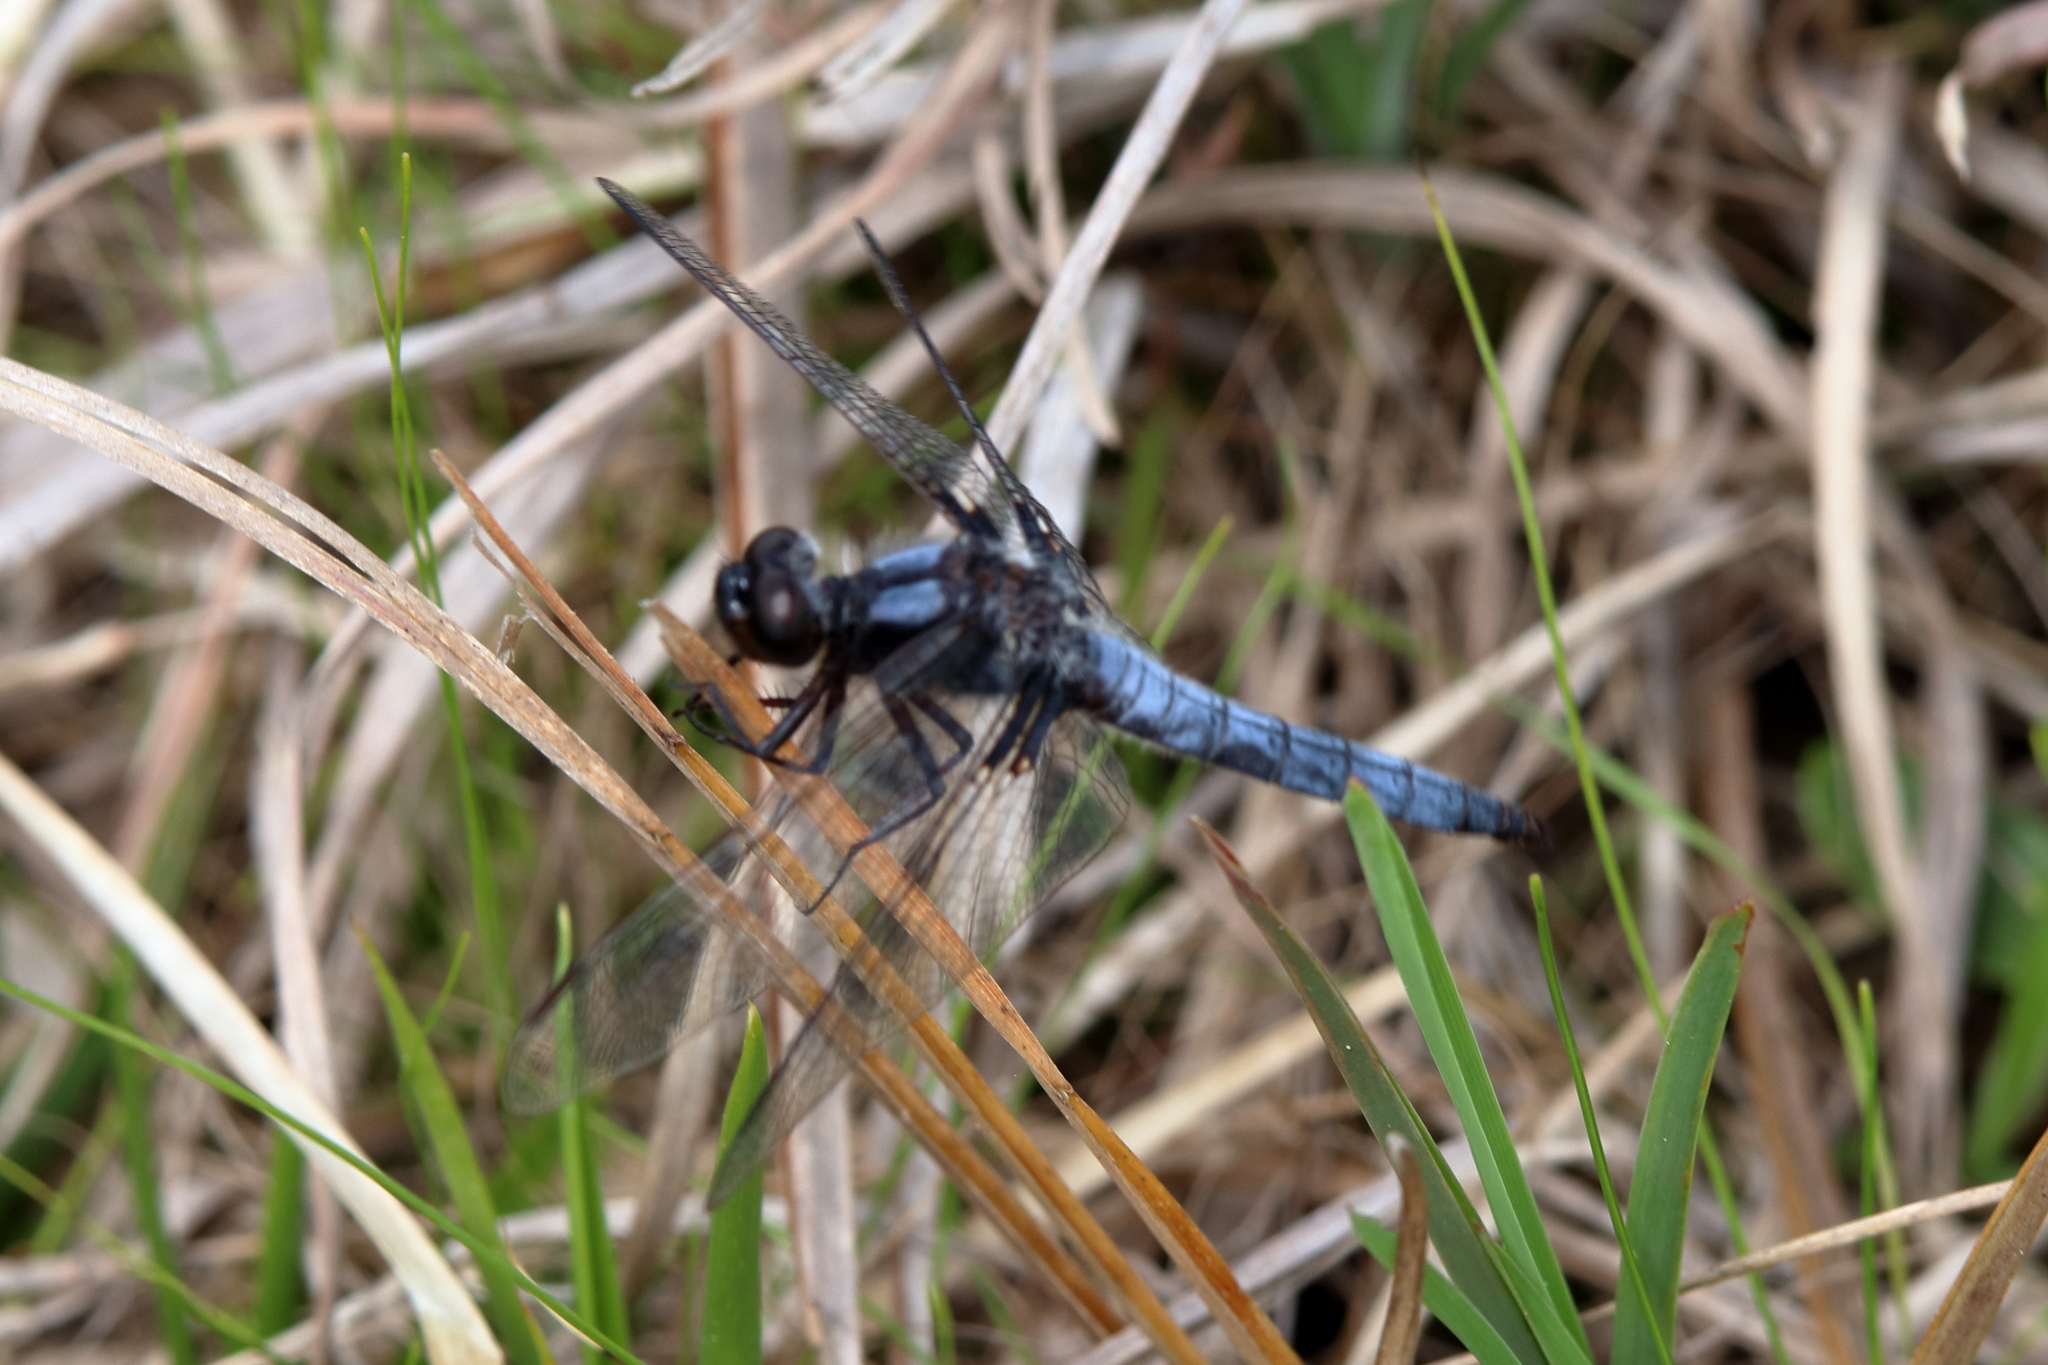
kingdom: Animalia
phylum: Arthropoda
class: Insecta
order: Odonata
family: Libellulidae
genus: Ladona
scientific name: Ladona deplanata
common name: Blue corporal
